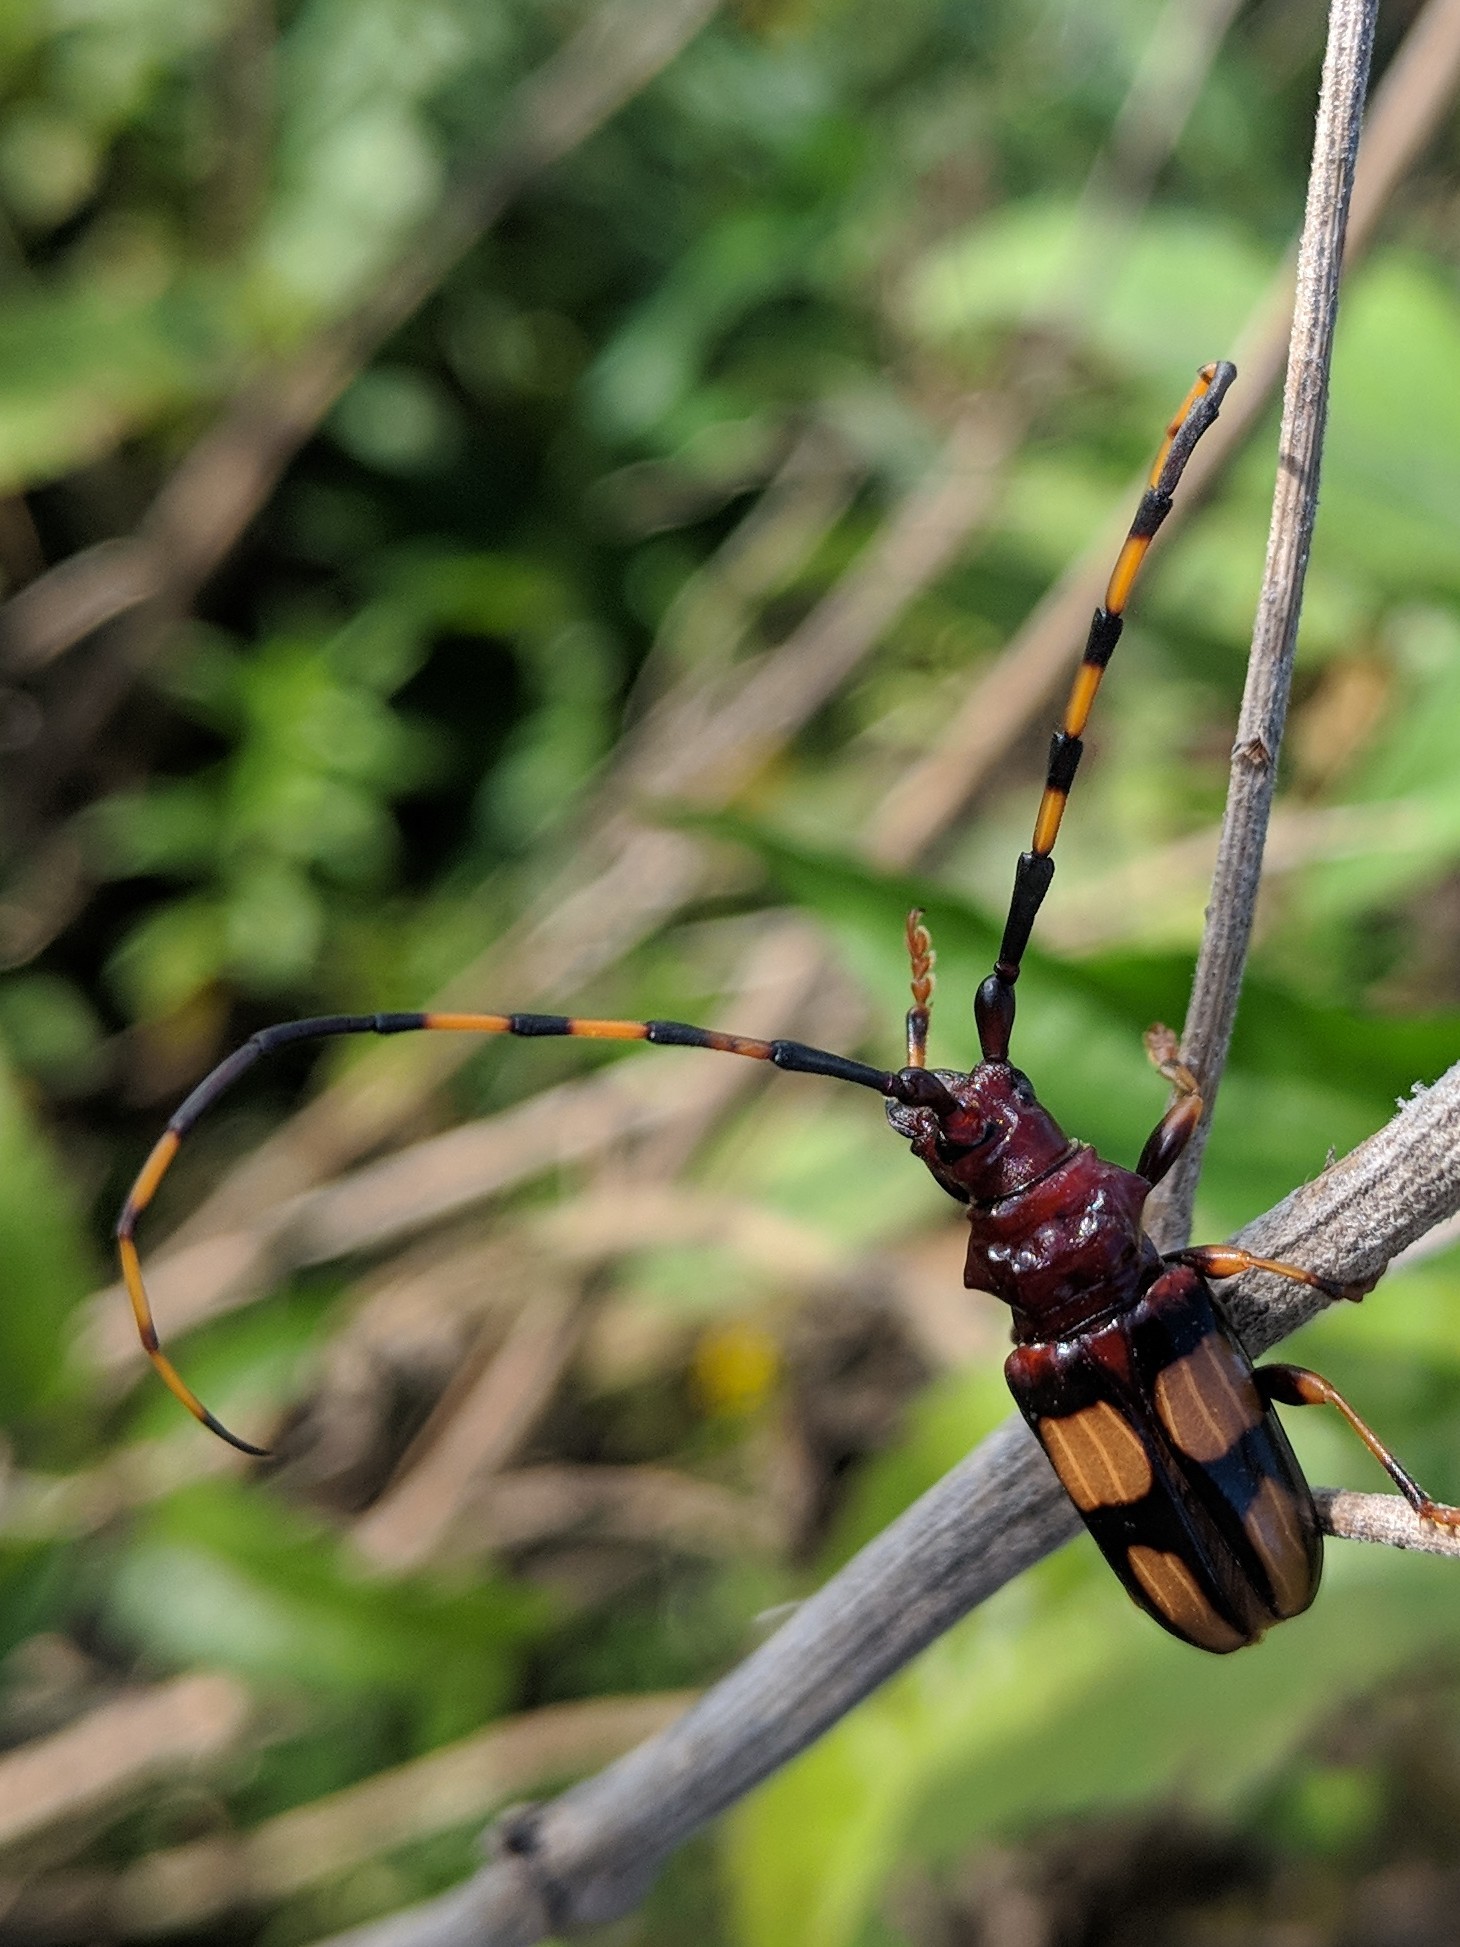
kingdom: Animalia
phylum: Arthropoda
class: Insecta
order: Coleoptera
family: Cerambycidae
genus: Trachyderes
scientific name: Trachyderes mandibularis
